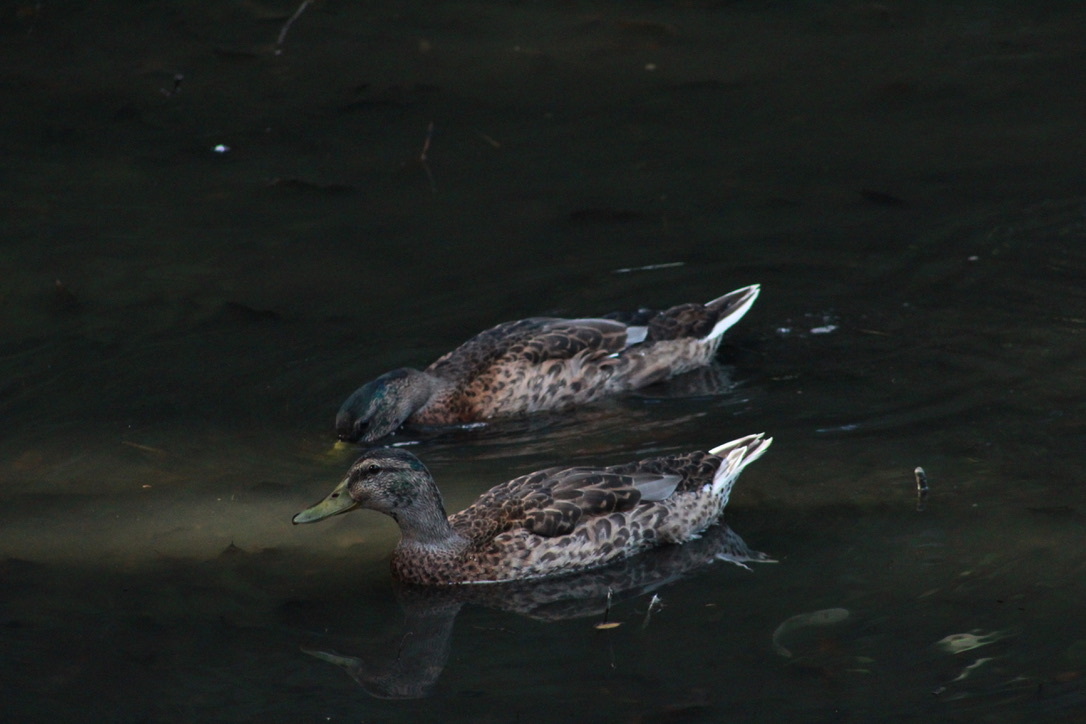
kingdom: Animalia
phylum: Chordata
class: Aves
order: Anseriformes
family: Anatidae
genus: Anas
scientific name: Anas platyrhynchos
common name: Mallard
